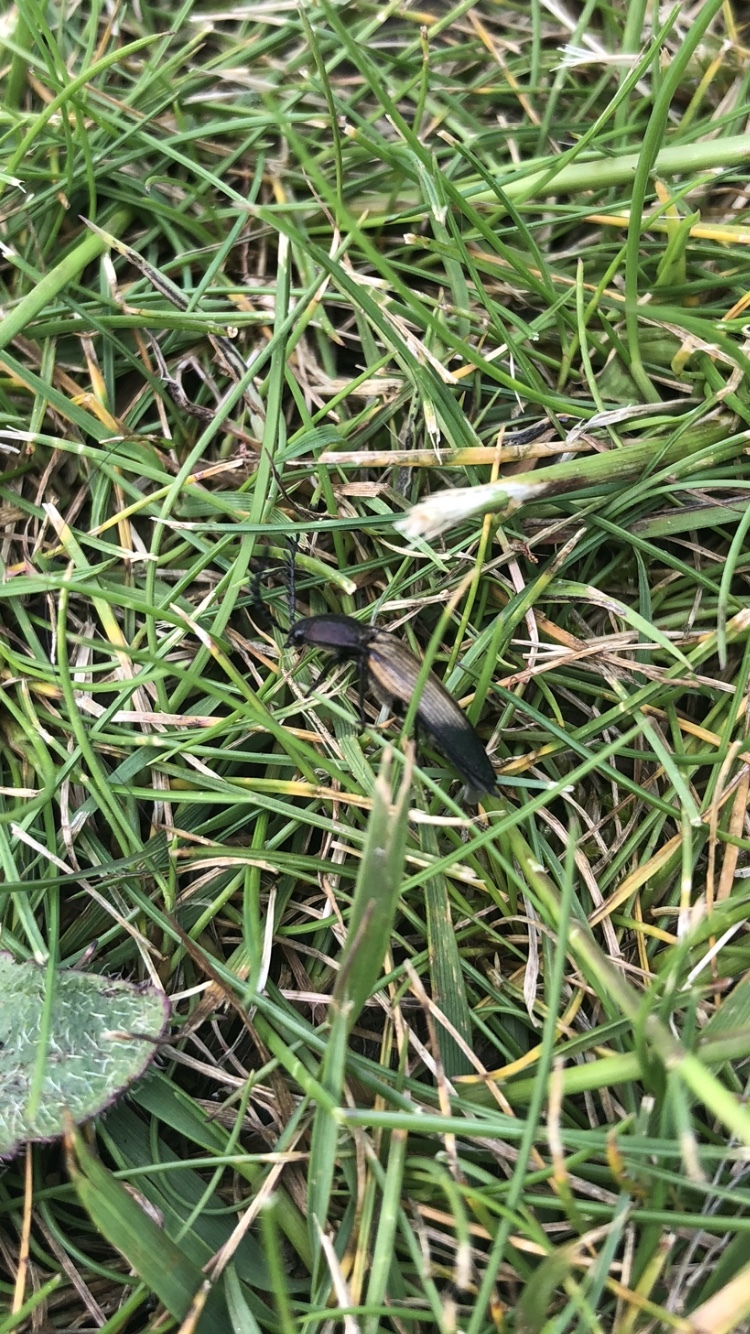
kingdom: Animalia
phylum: Arthropoda
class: Insecta
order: Coleoptera
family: Elateridae
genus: Ctenicera
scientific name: Ctenicera cuprea
